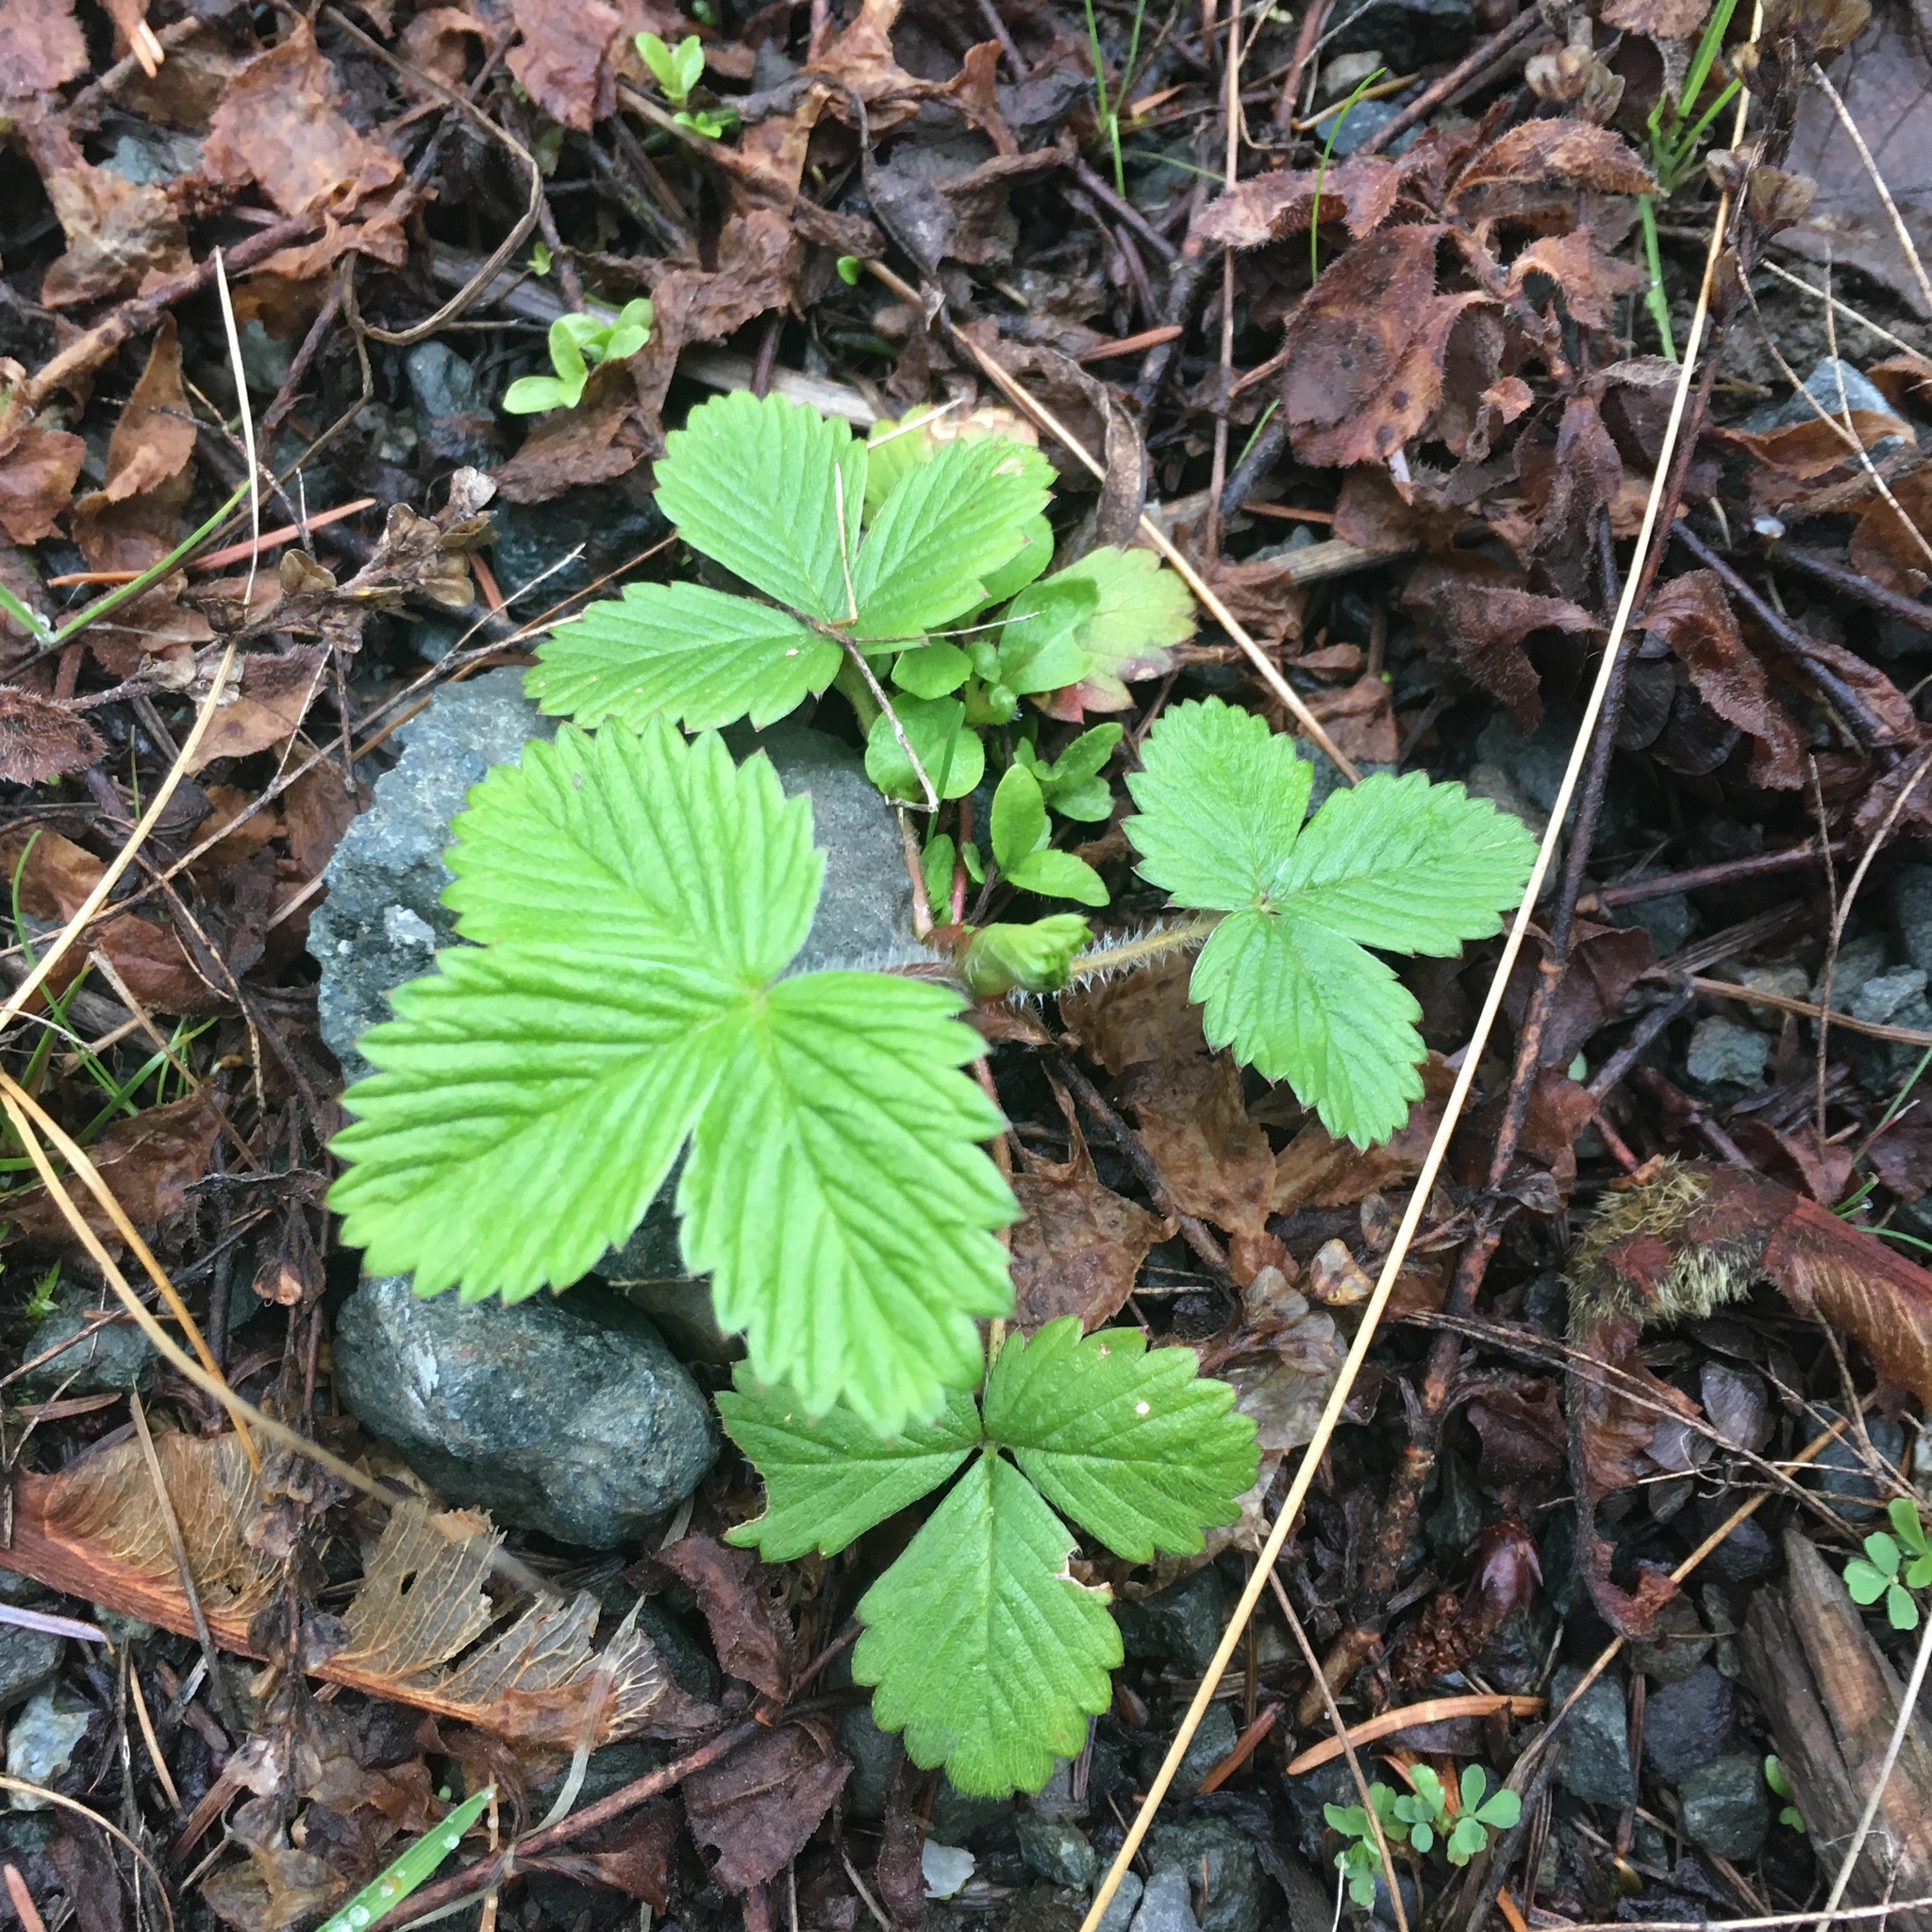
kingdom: Plantae
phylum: Tracheophyta
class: Magnoliopsida
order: Rosales
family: Rosaceae
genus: Fragaria
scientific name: Fragaria vesca
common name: Wild strawberry
